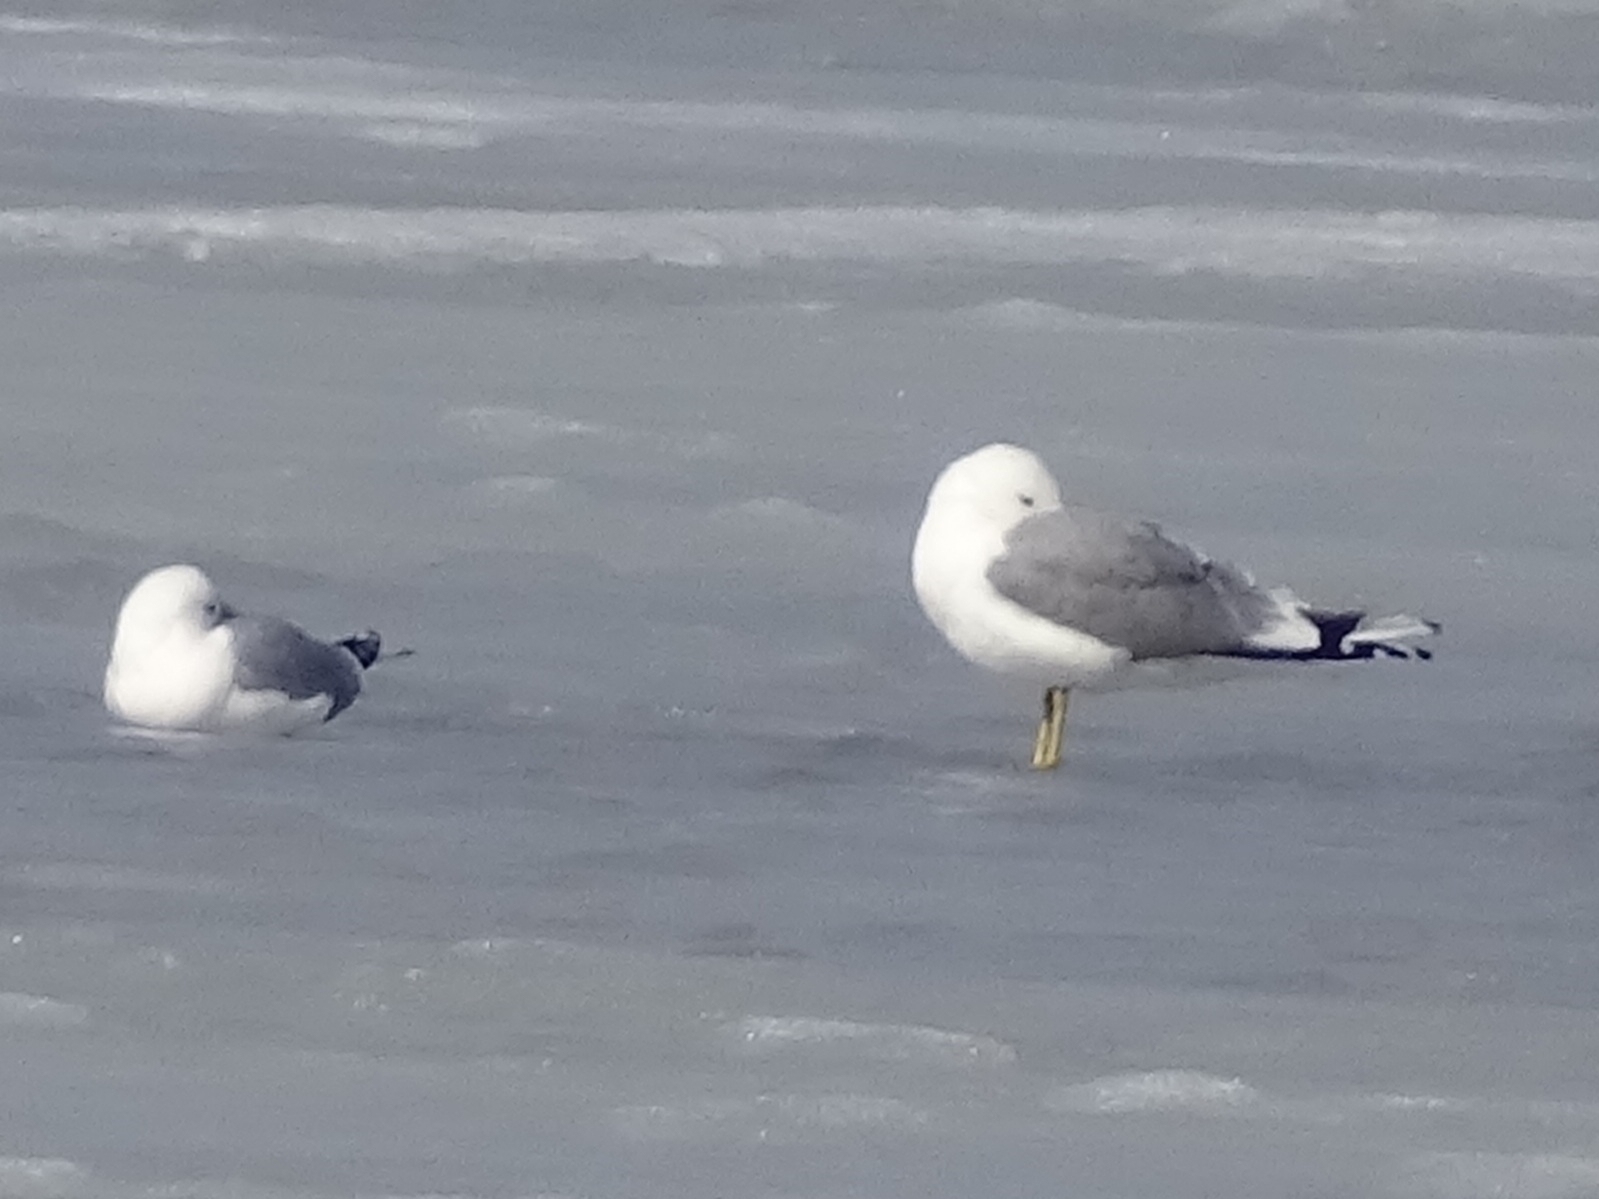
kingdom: Animalia
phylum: Chordata
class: Aves
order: Charadriiformes
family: Laridae
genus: Larus
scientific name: Larus canus
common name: Mew gull
